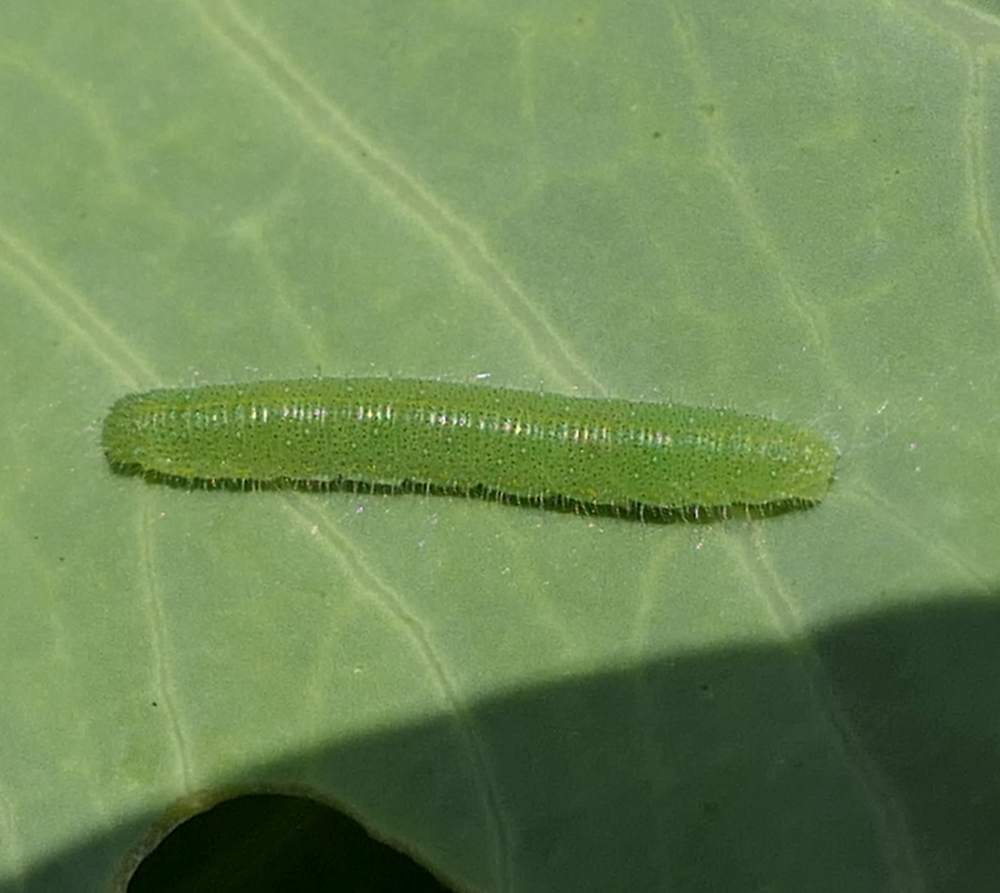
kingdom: Animalia
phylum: Arthropoda
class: Insecta
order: Lepidoptera
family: Pieridae
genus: Pieris
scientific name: Pieris rapae
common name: Small white
